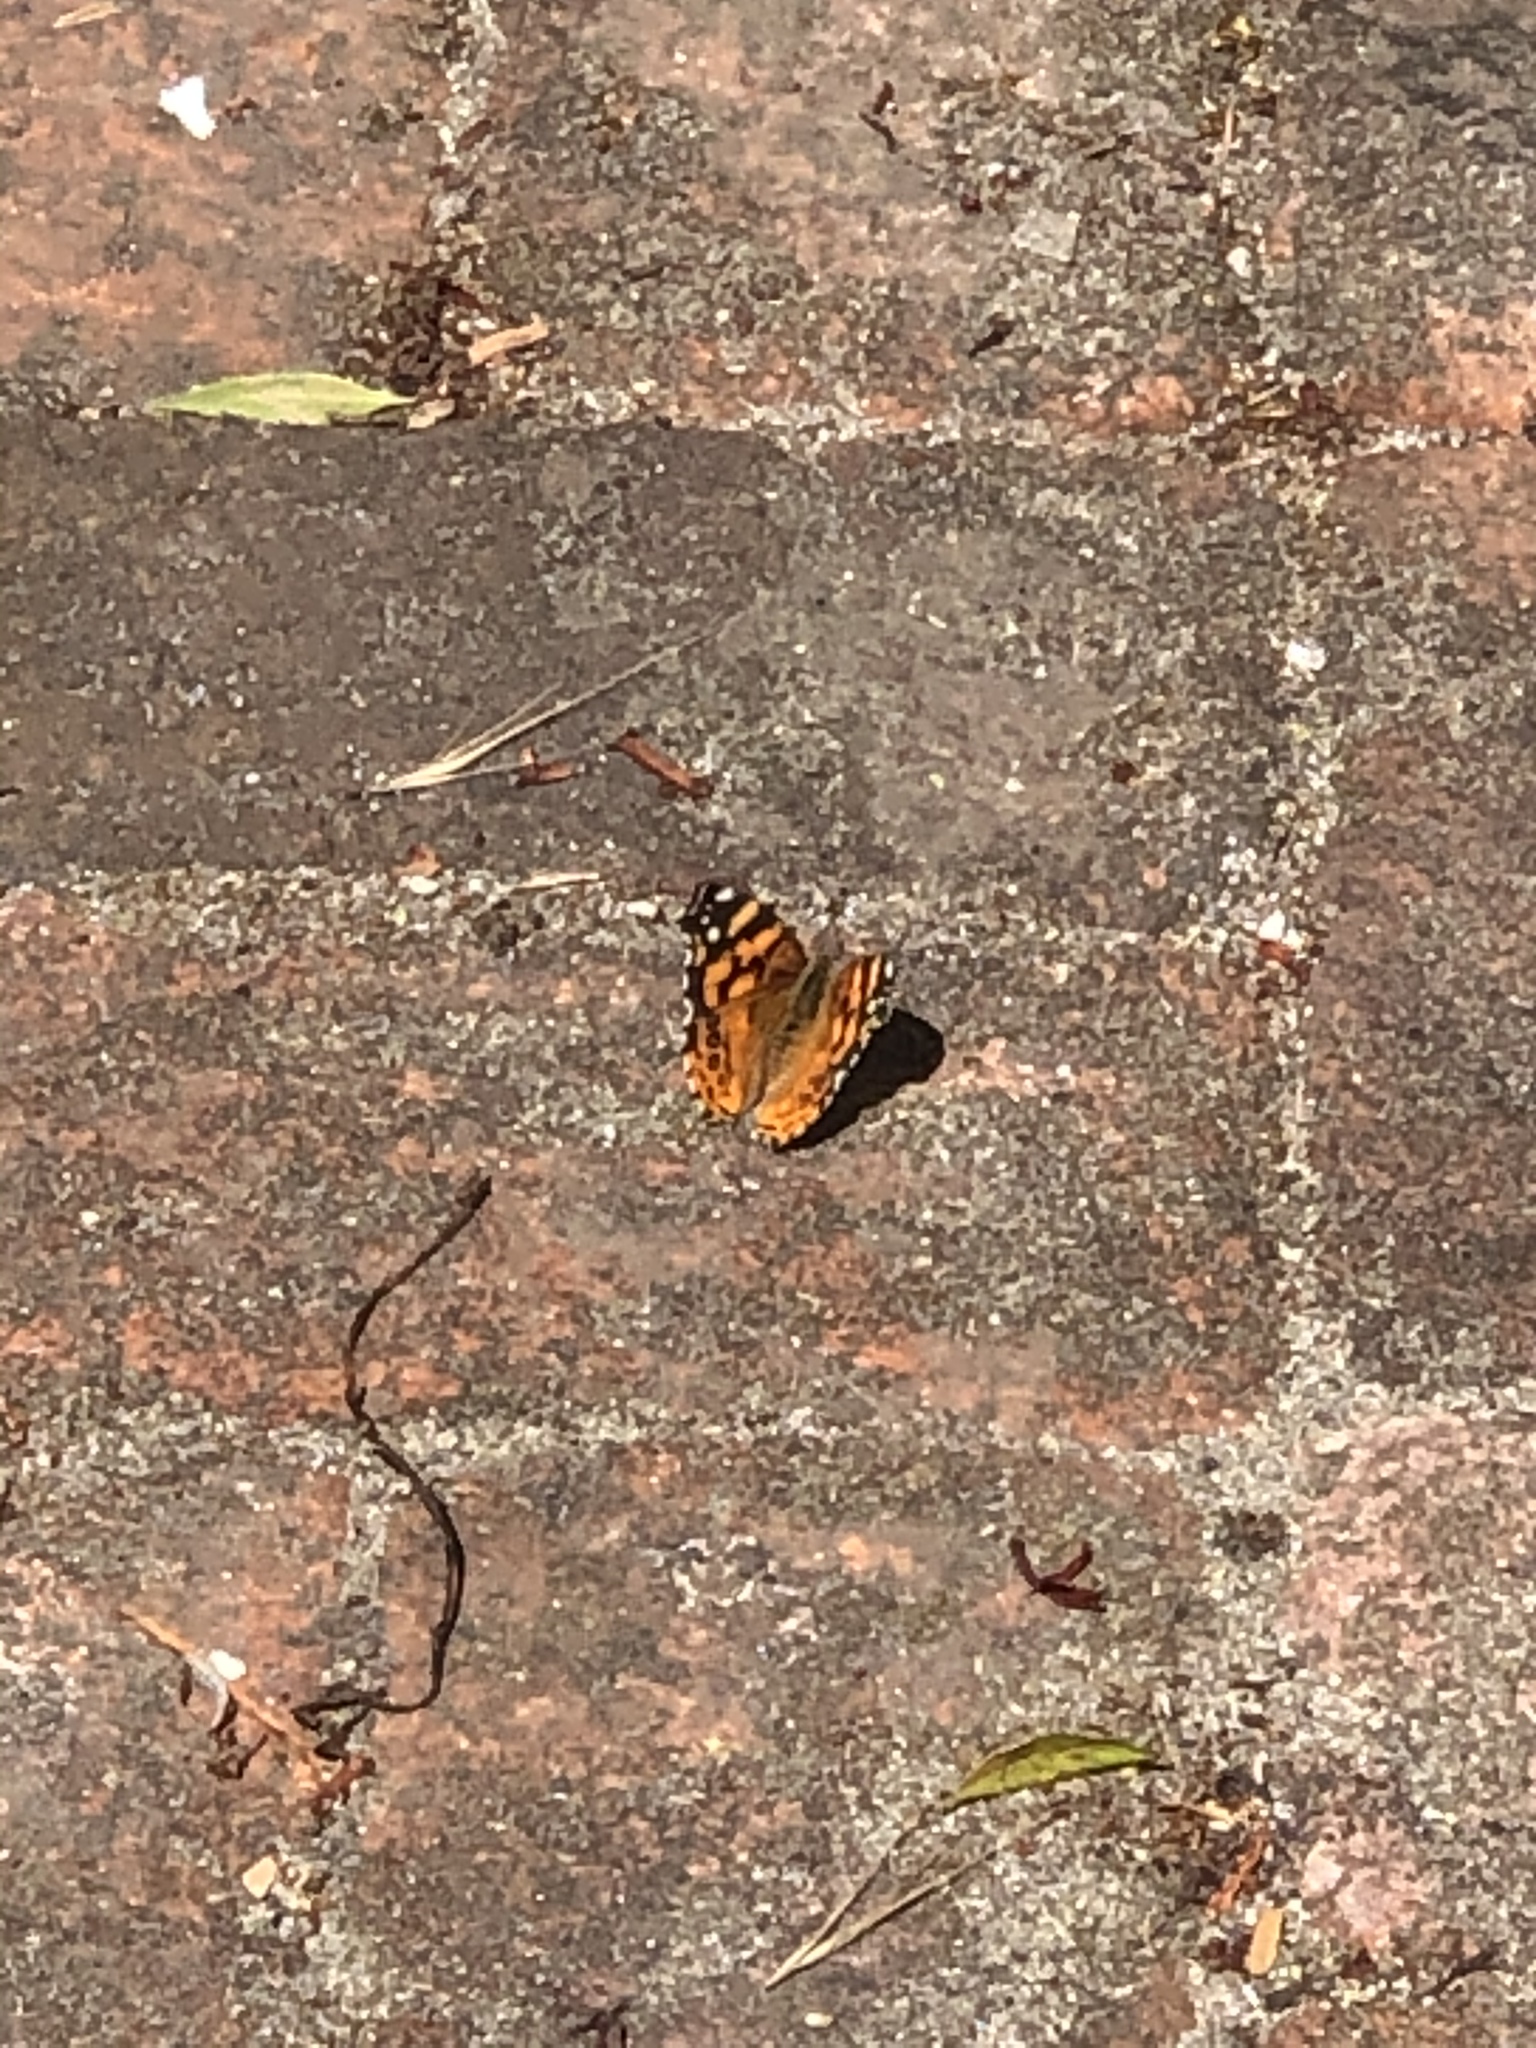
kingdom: Animalia
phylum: Arthropoda
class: Insecta
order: Lepidoptera
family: Nymphalidae
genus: Vanessa
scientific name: Vanessa annabella
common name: West coast lady
